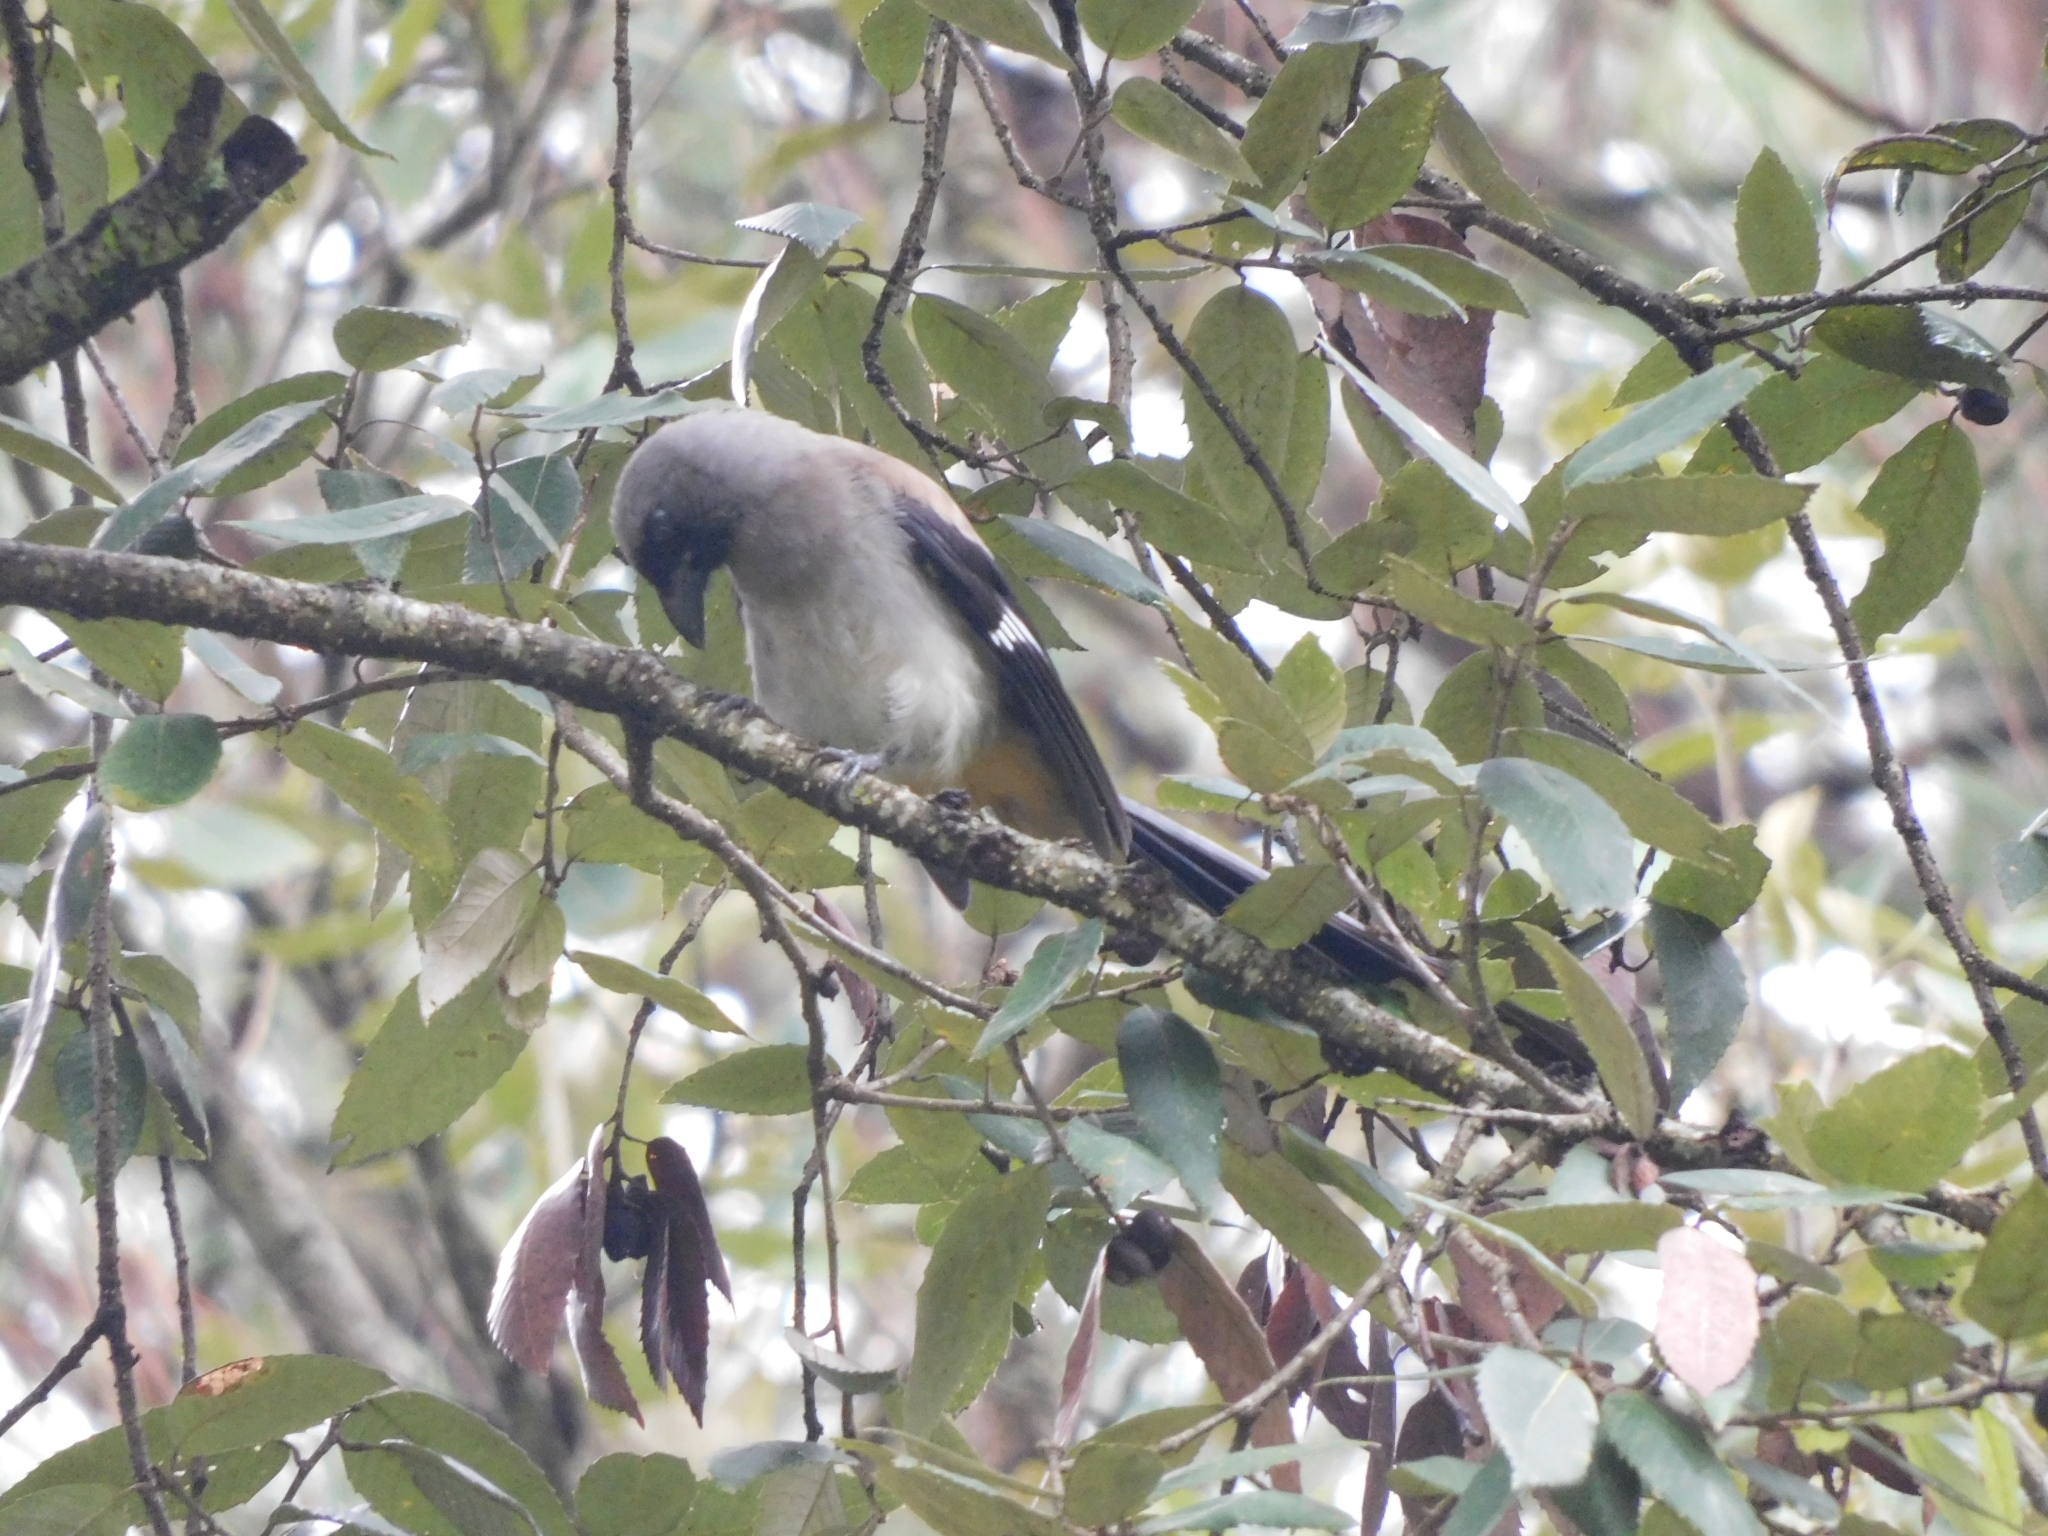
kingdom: Animalia
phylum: Chordata
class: Aves
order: Passeriformes
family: Corvidae
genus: Dendrocitta
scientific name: Dendrocitta formosae
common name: Grey treepie
